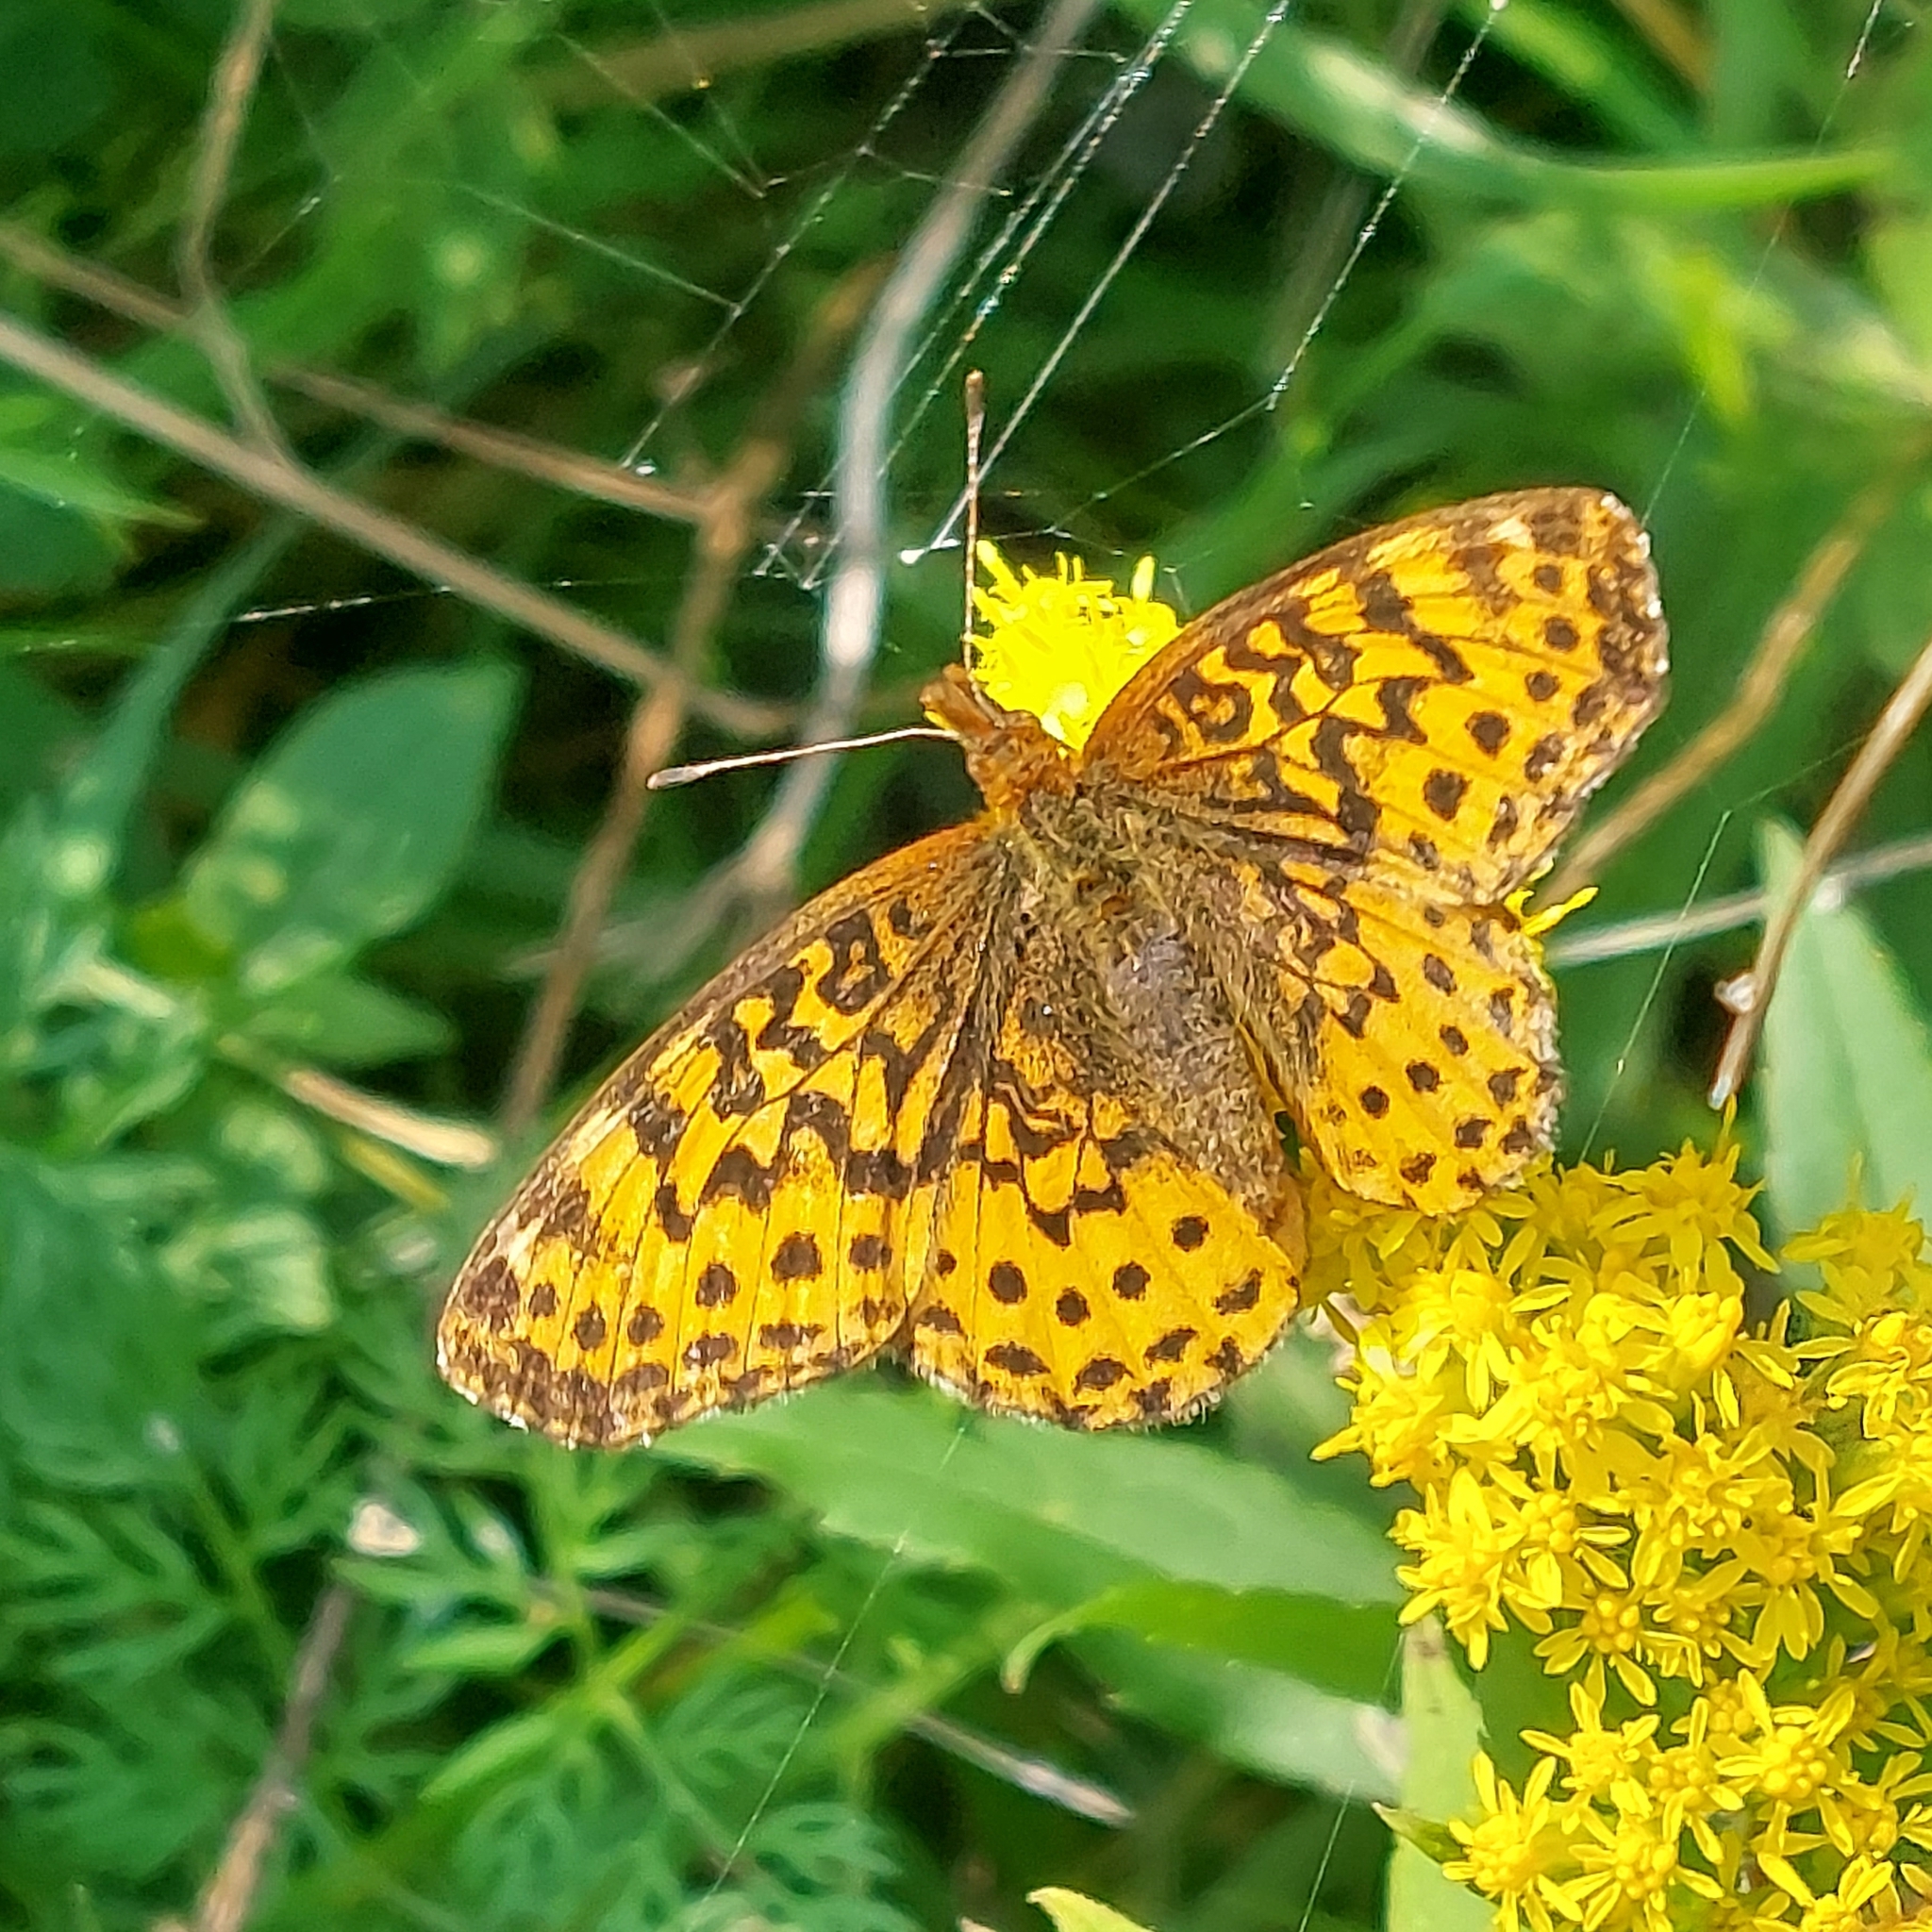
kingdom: Animalia
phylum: Arthropoda
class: Insecta
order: Lepidoptera
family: Nymphalidae
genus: Clossiana
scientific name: Clossiana toddi
